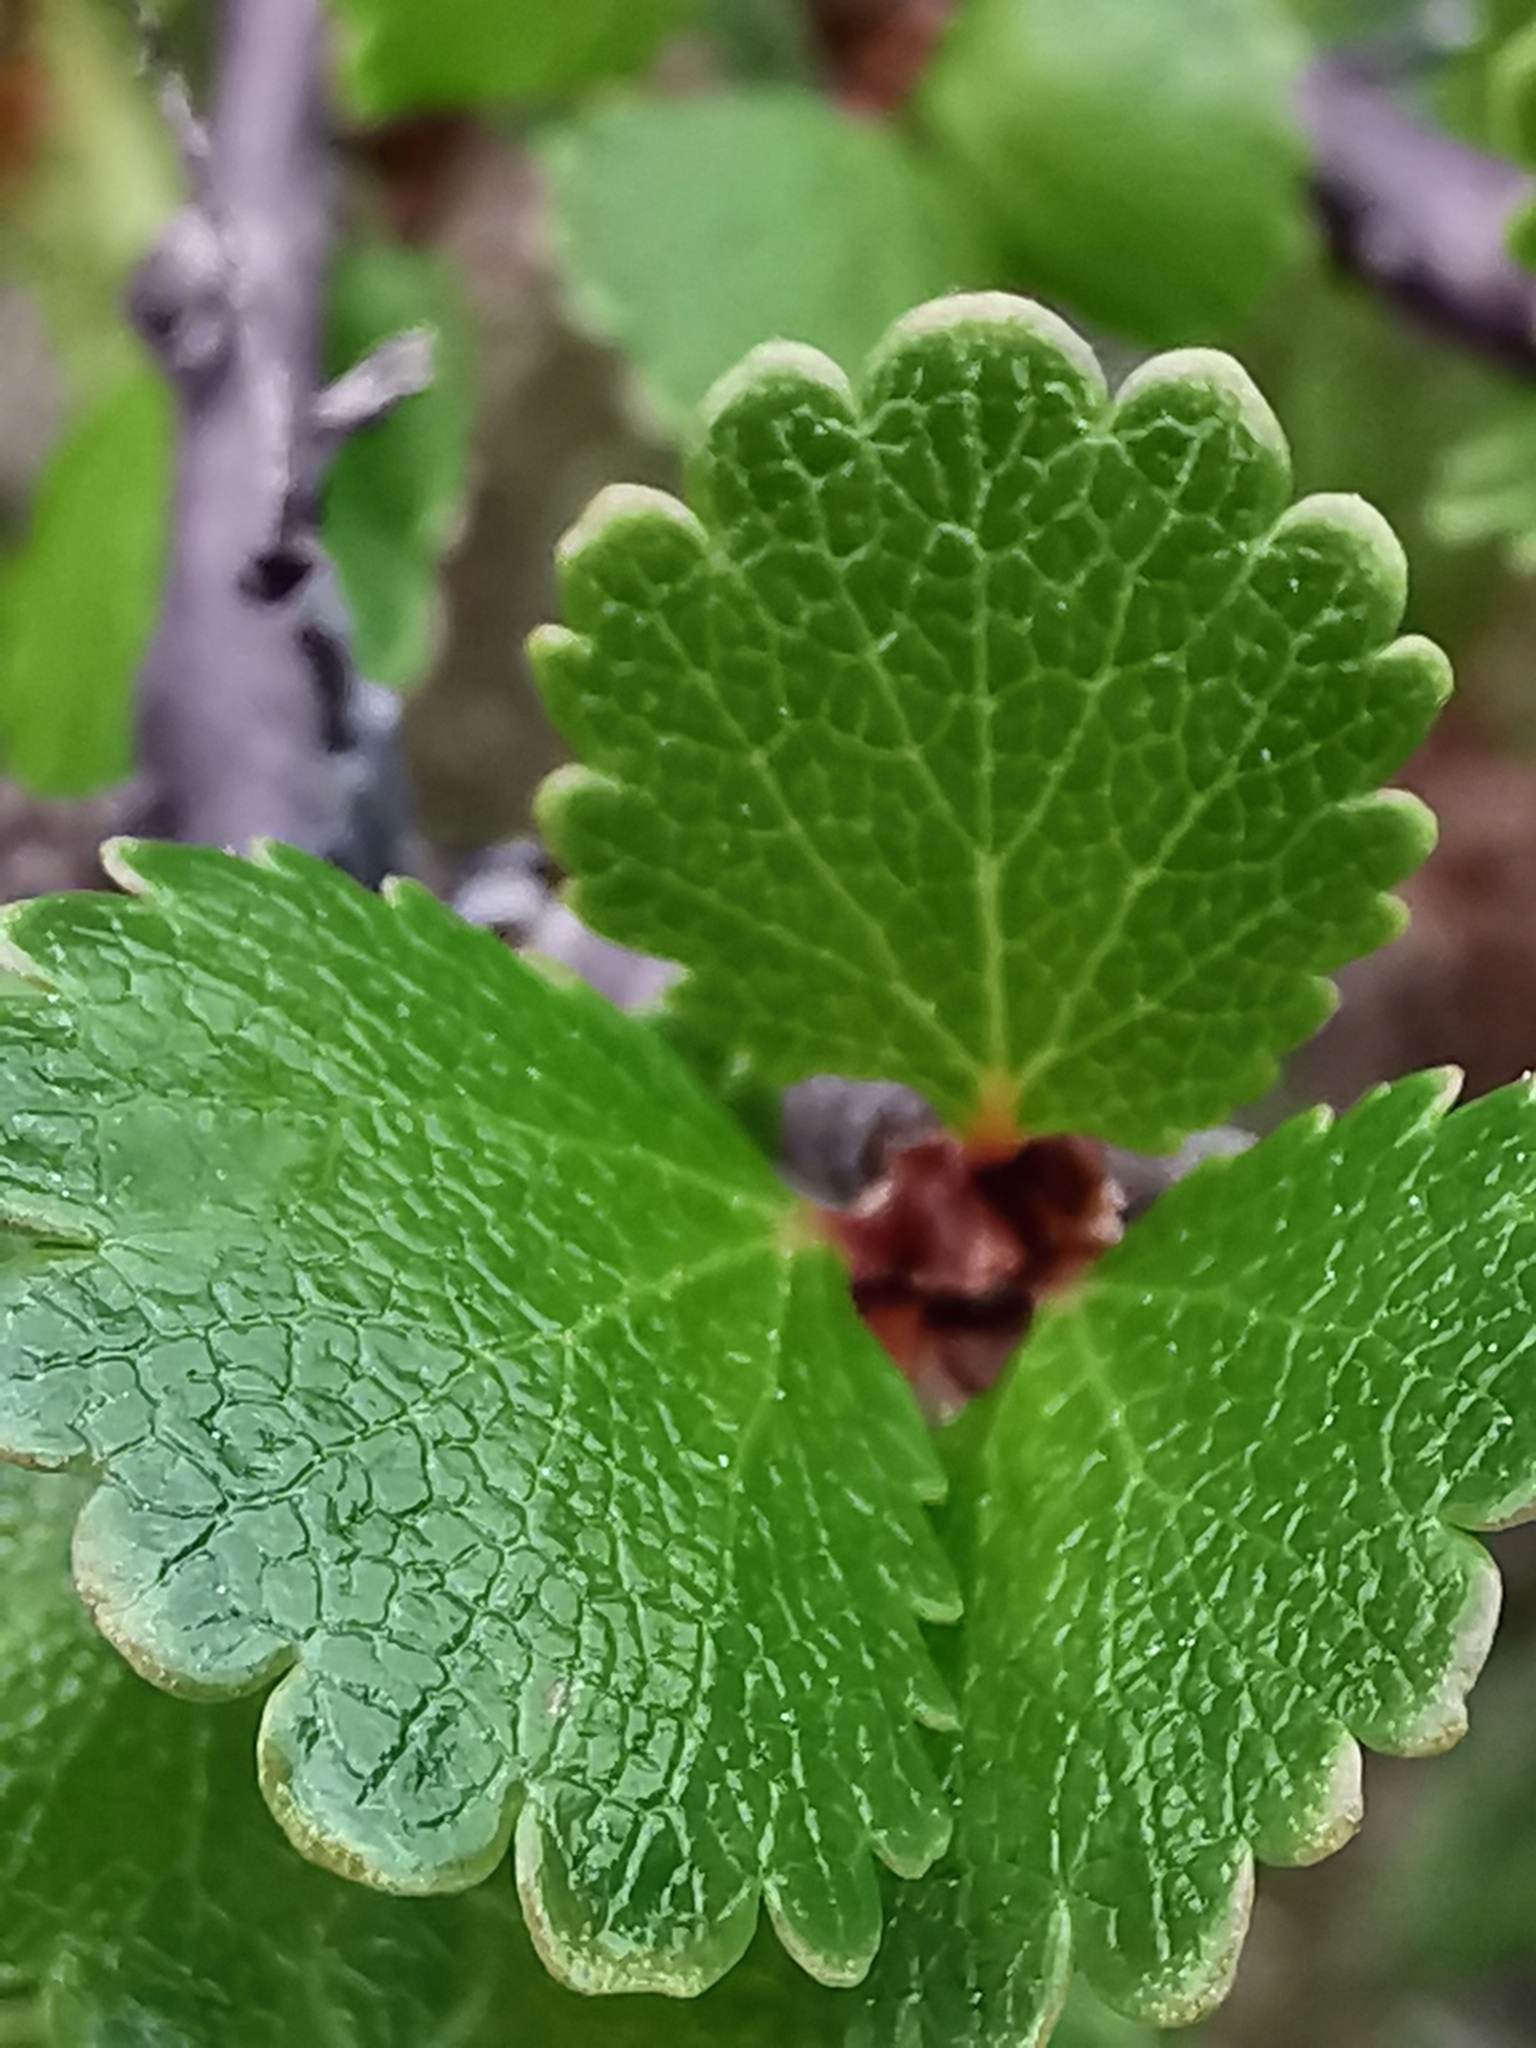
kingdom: Plantae
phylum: Tracheophyta
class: Magnoliopsida
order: Fagales
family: Betulaceae
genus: Betula
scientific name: Betula nana
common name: Arctic dwarf birch
